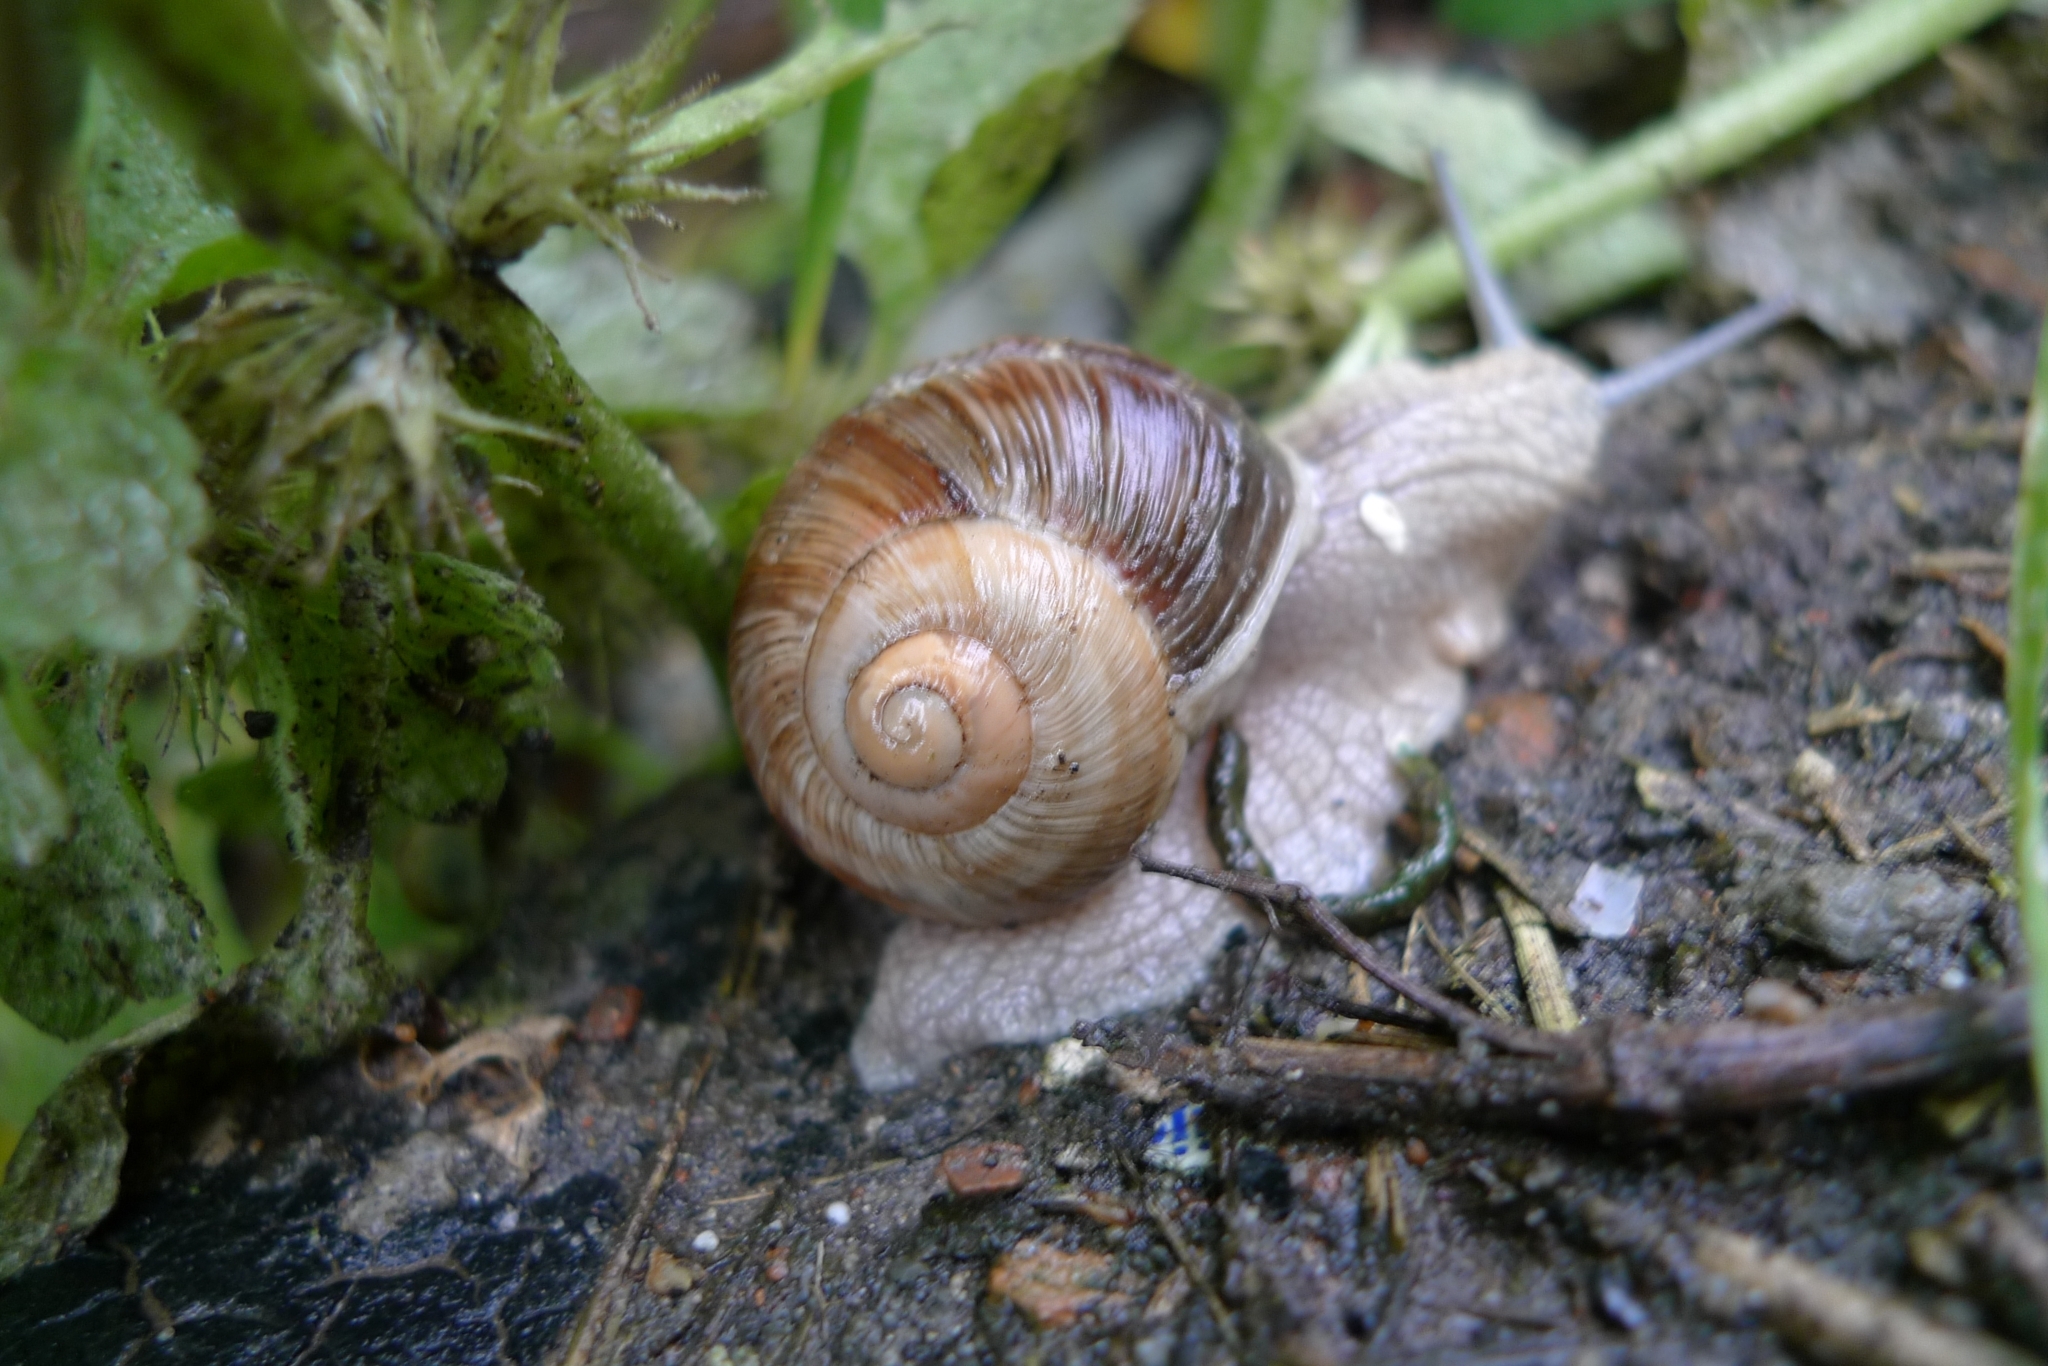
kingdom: Animalia
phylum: Mollusca
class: Gastropoda
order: Stylommatophora
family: Helicidae
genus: Helix
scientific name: Helix pomatia
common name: Roman snail
